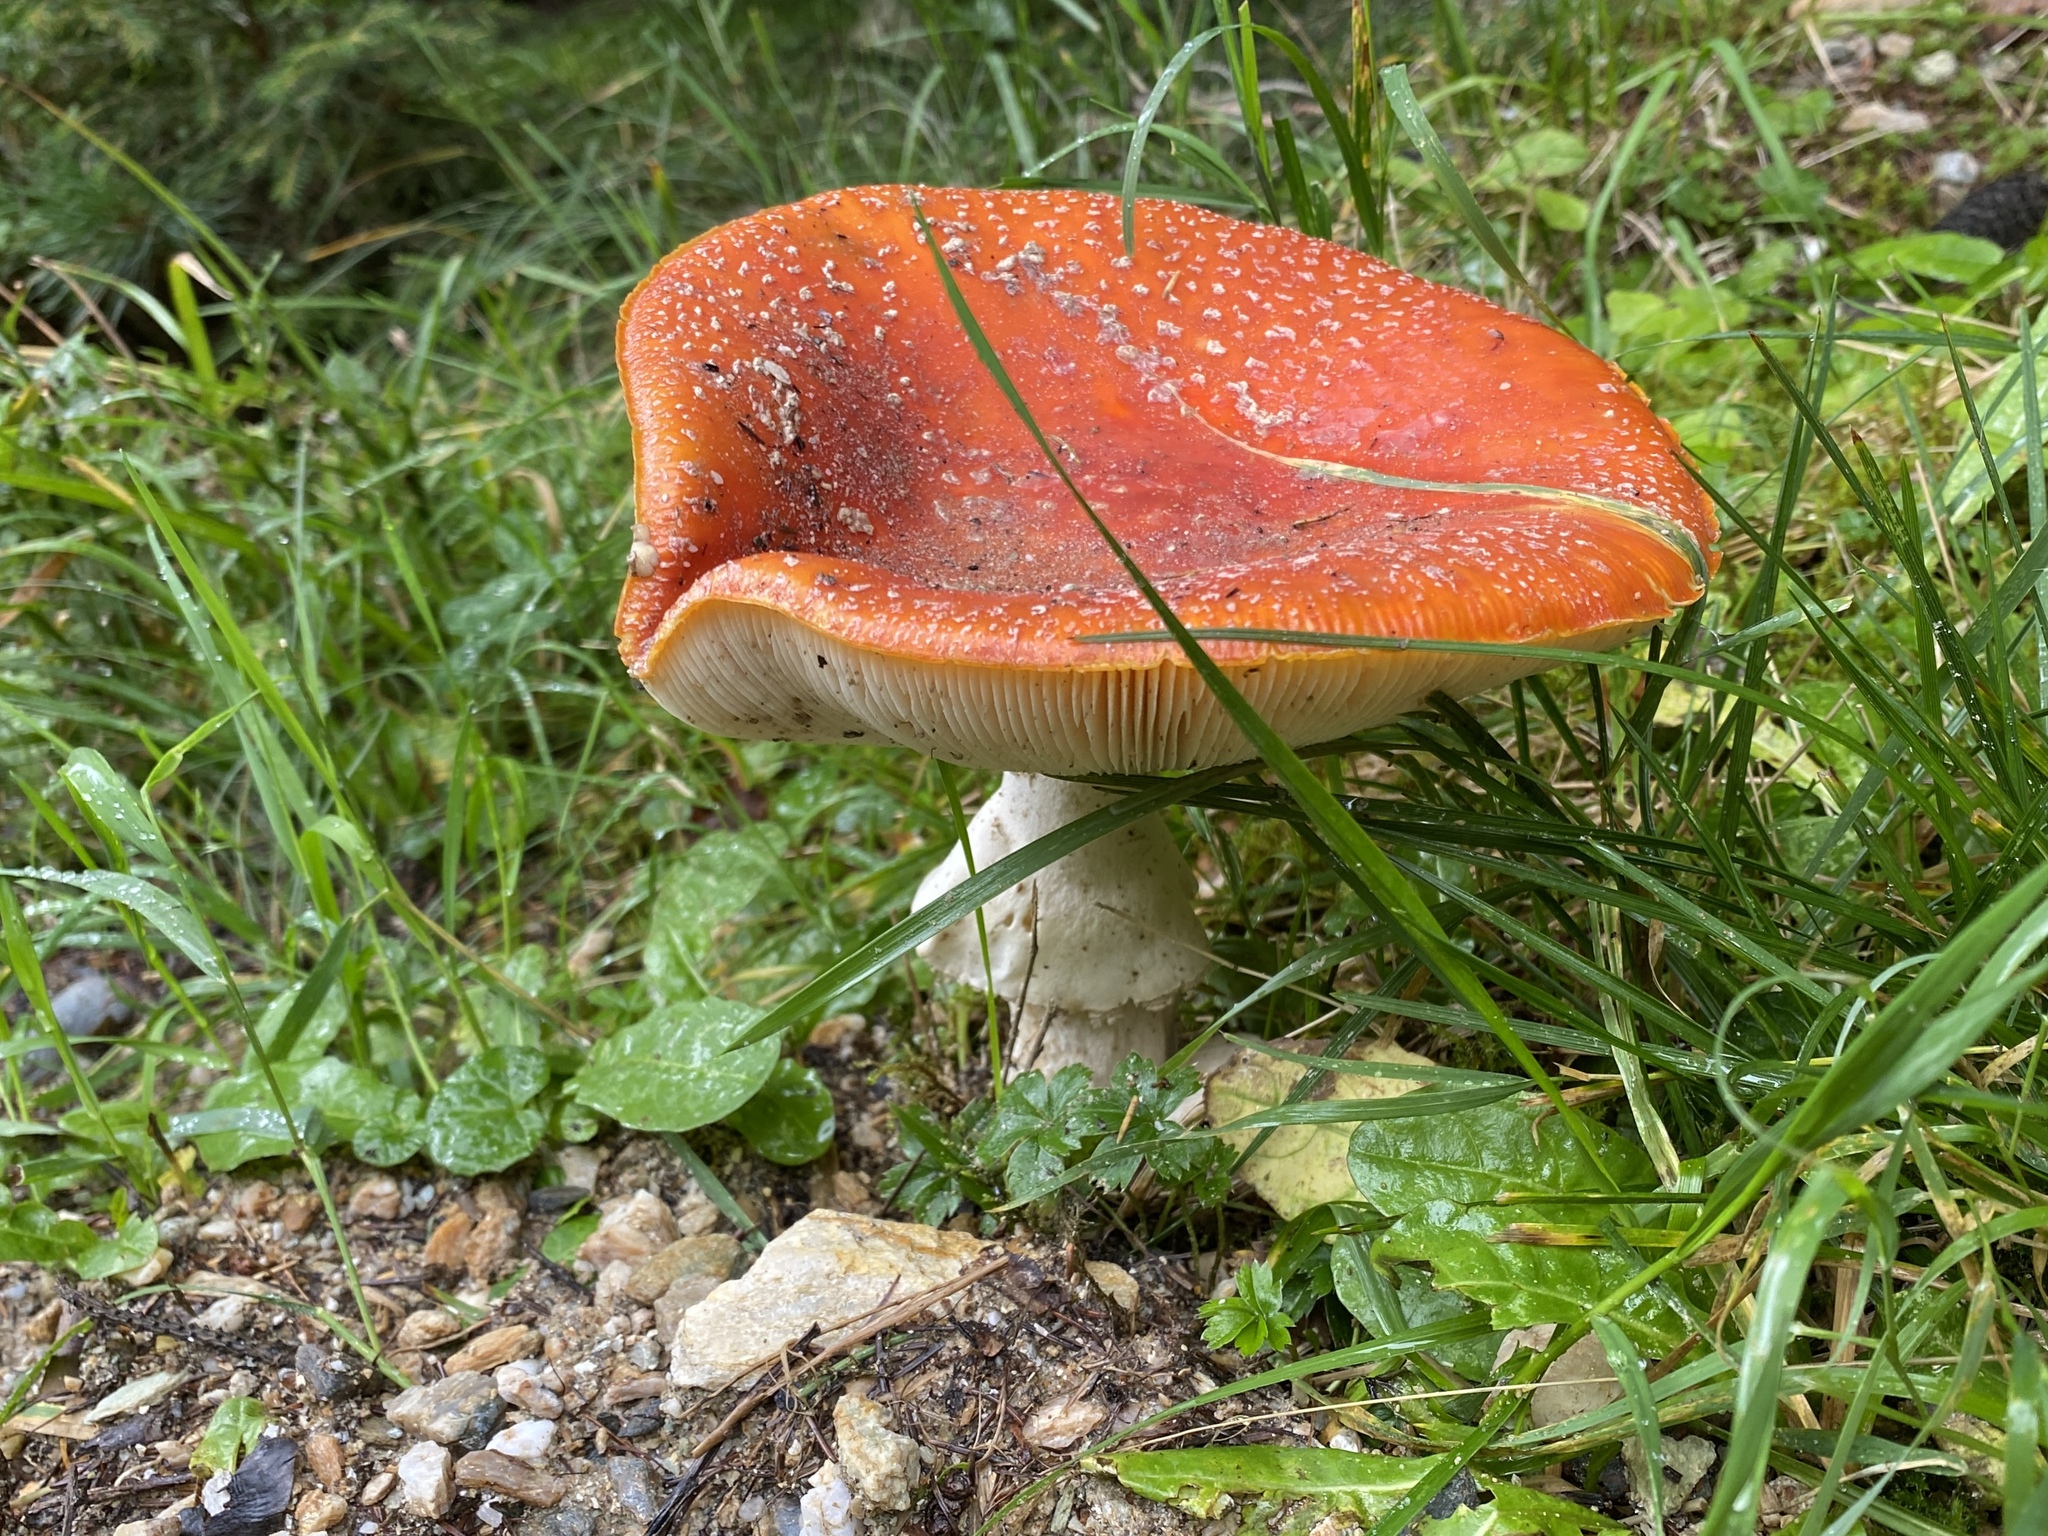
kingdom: Fungi
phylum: Basidiomycota
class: Agaricomycetes
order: Agaricales
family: Amanitaceae
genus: Amanita
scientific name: Amanita muscaria
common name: Fly agaric
